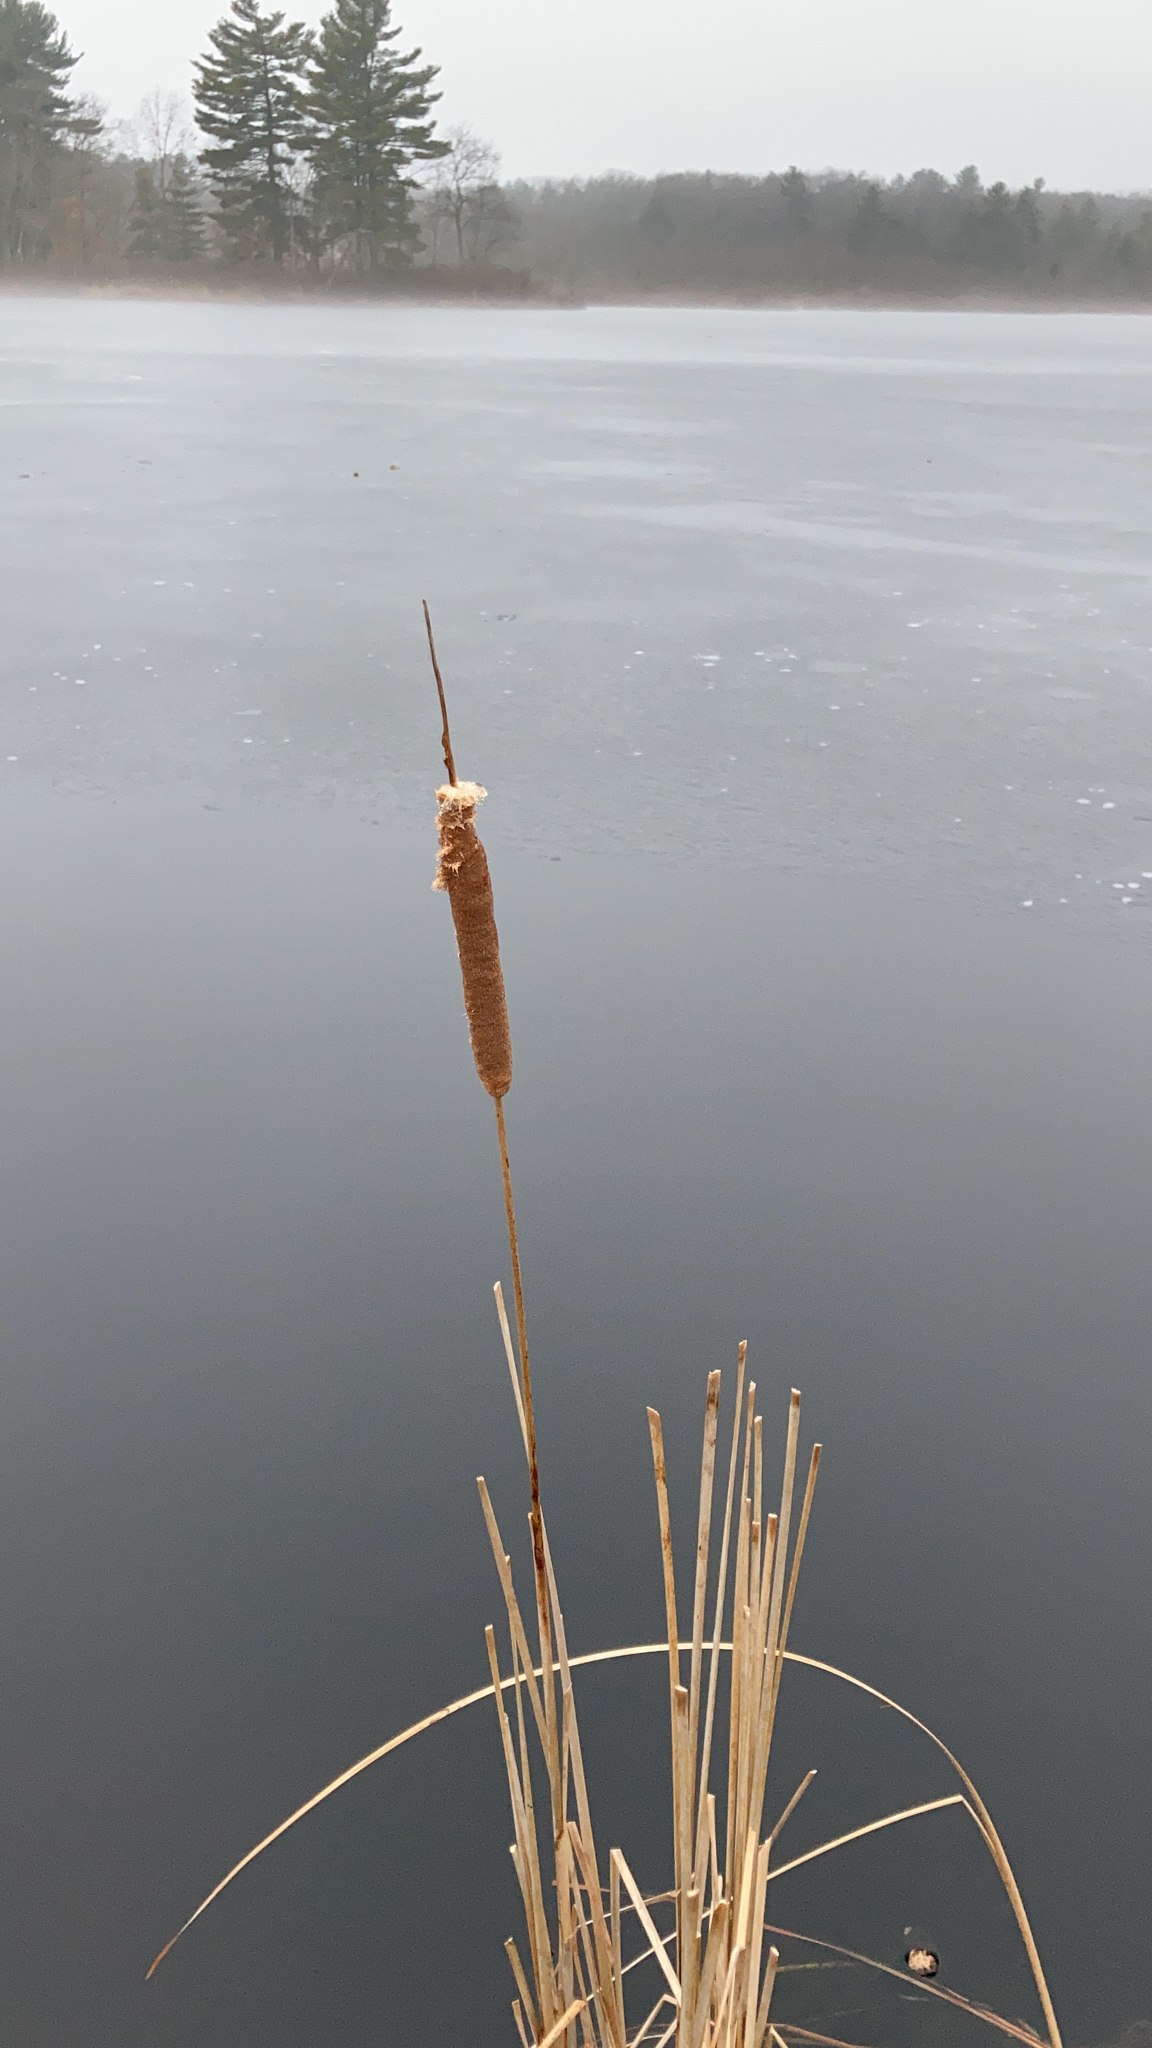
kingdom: Plantae
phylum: Tracheophyta
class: Liliopsida
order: Poales
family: Typhaceae
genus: Typha
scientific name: Typha
